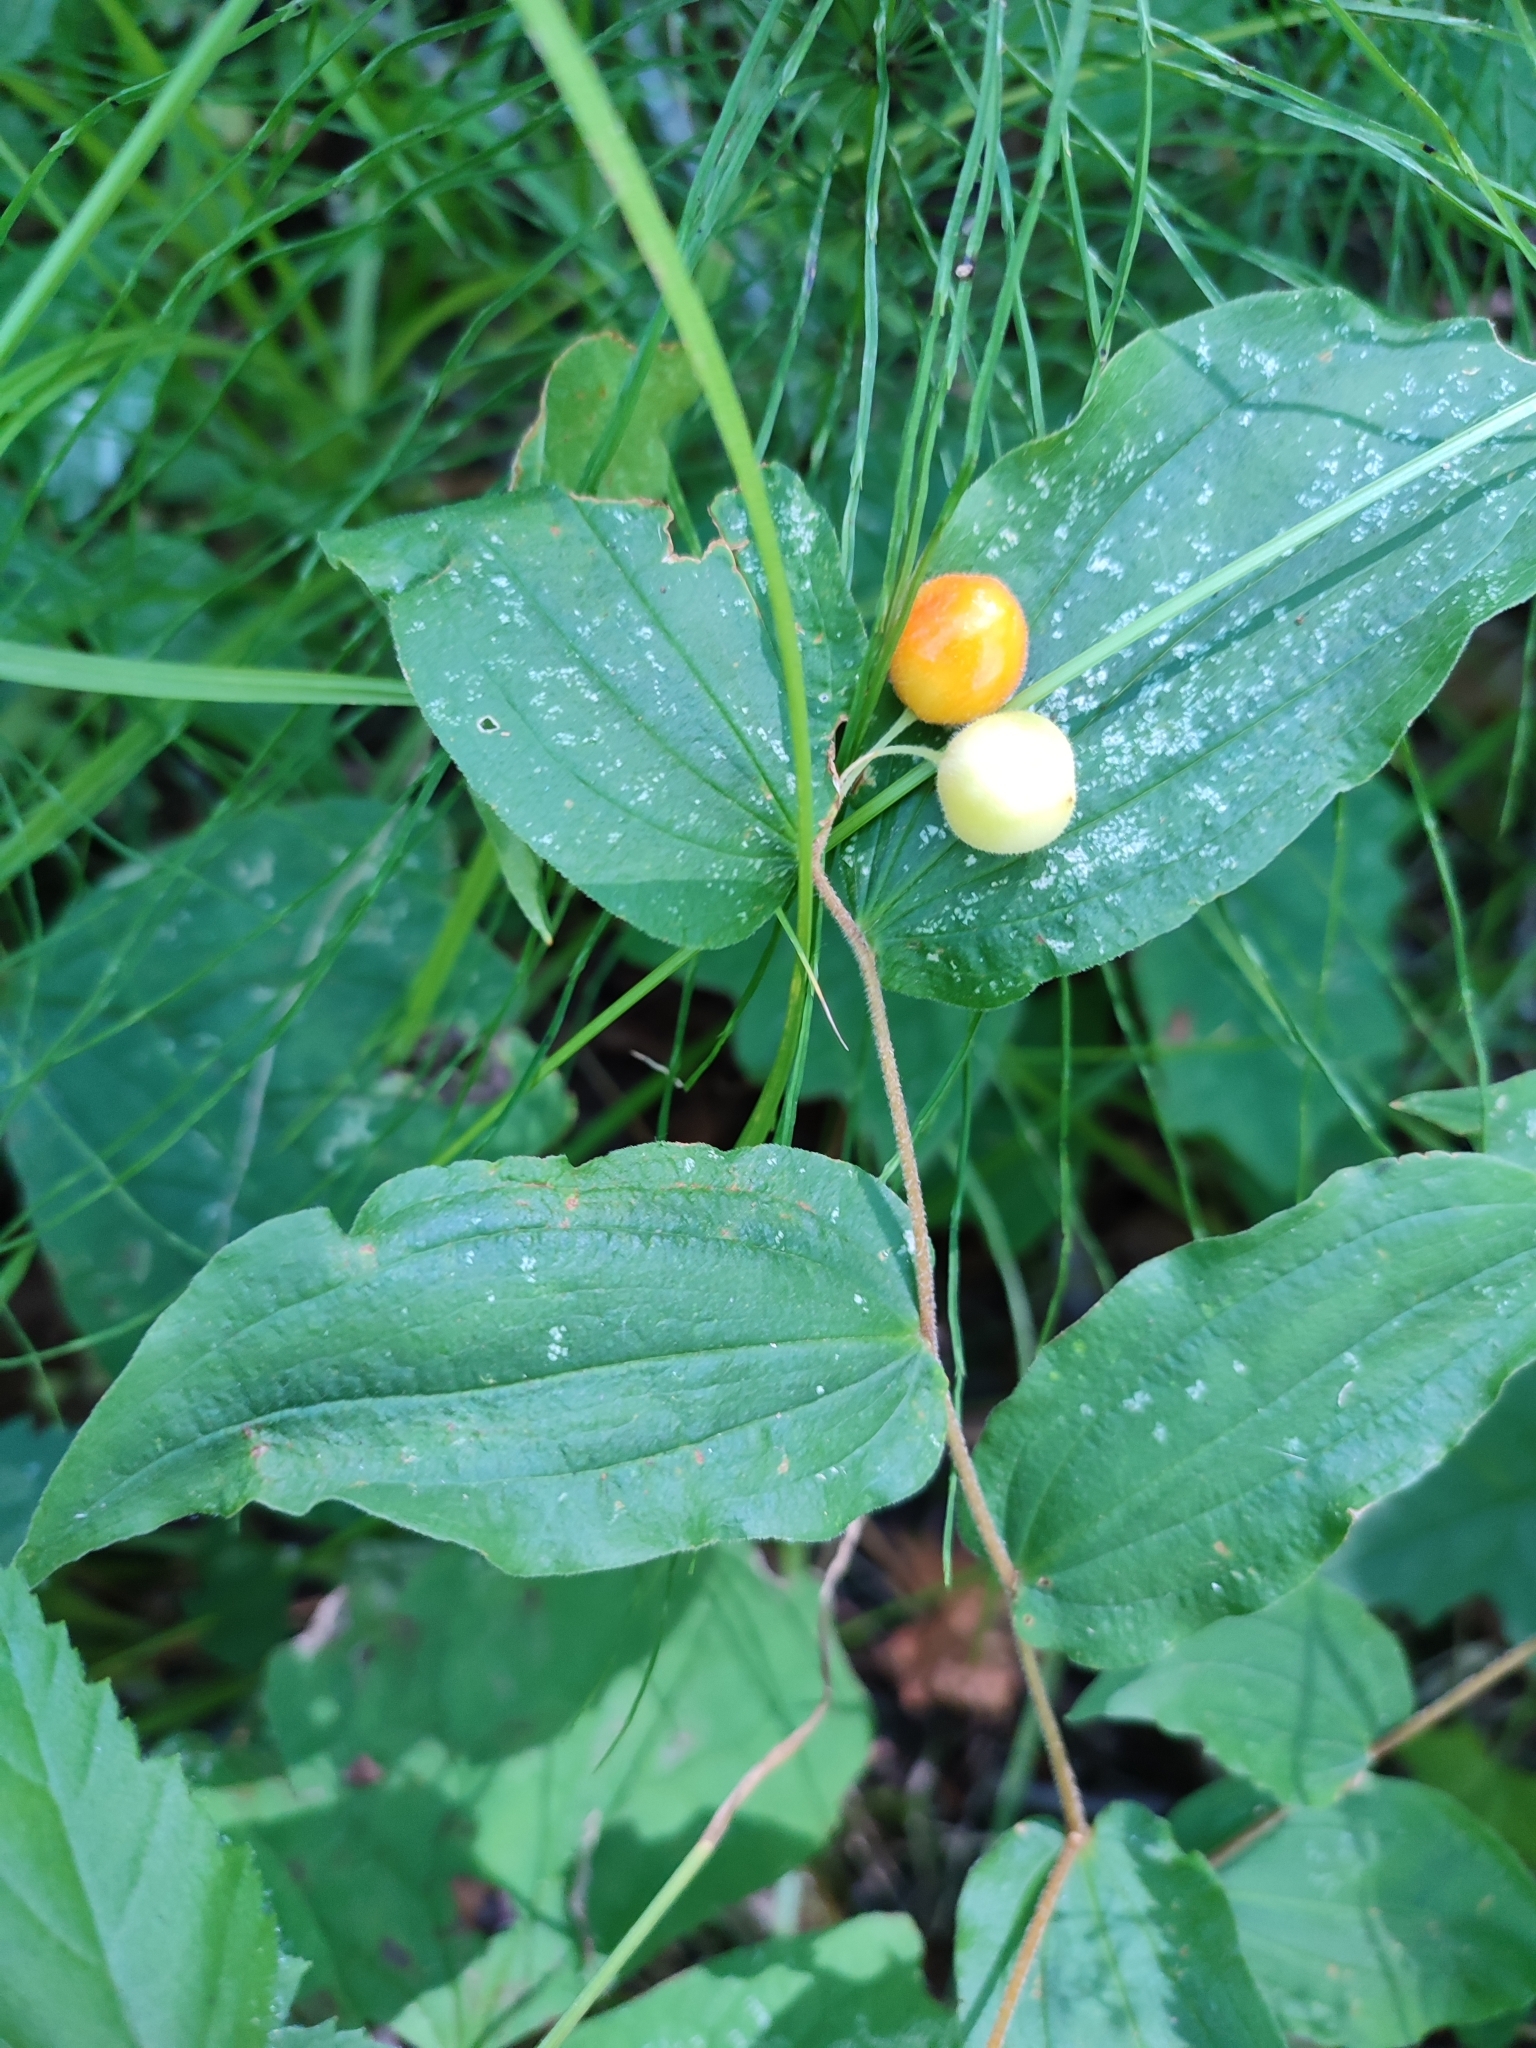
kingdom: Plantae
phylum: Tracheophyta
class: Liliopsida
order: Liliales
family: Liliaceae
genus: Prosartes
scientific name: Prosartes hookeri
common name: Fairy-bells
